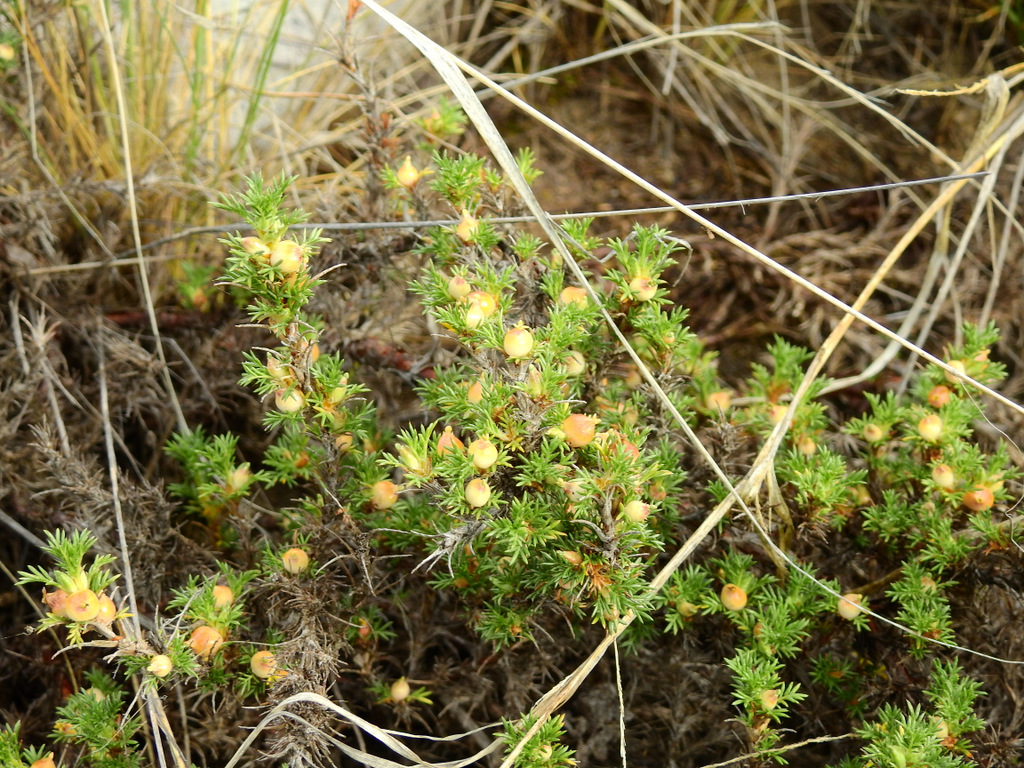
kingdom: Plantae
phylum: Tracheophyta
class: Magnoliopsida
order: Rosales
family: Rosaceae
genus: Margyricarpus
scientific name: Margyricarpus pinnatus
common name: Pearlfruit
